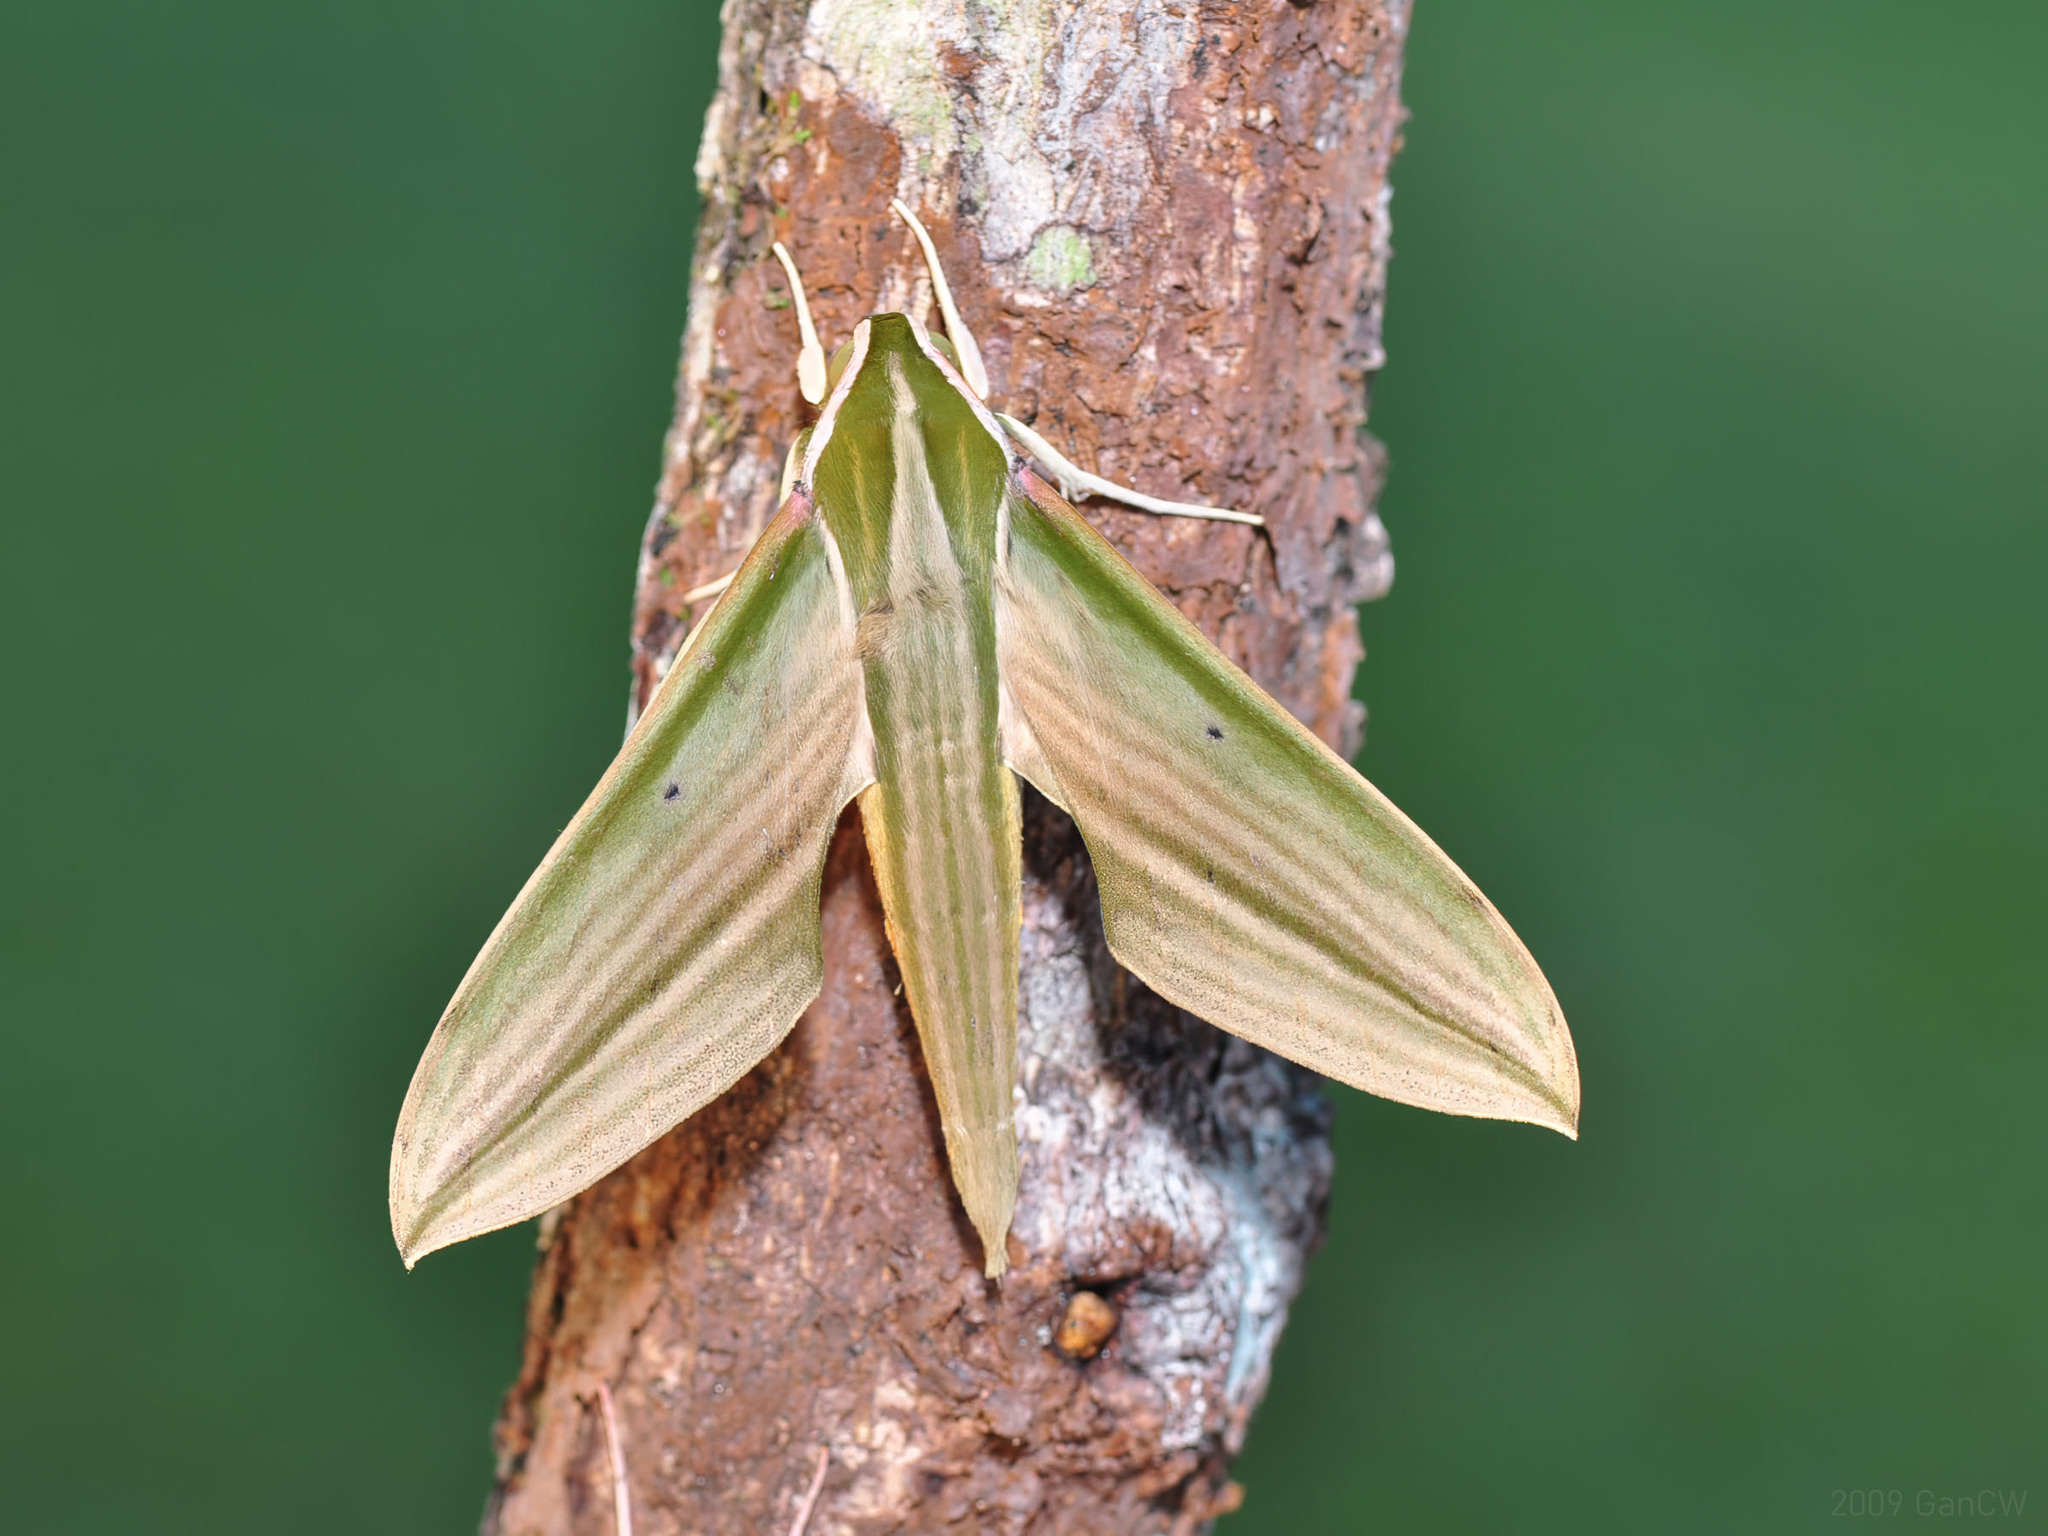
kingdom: Animalia
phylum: Arthropoda
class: Insecta
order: Lepidoptera
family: Sphingidae
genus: Cechetra
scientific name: Cechetra lineosa
